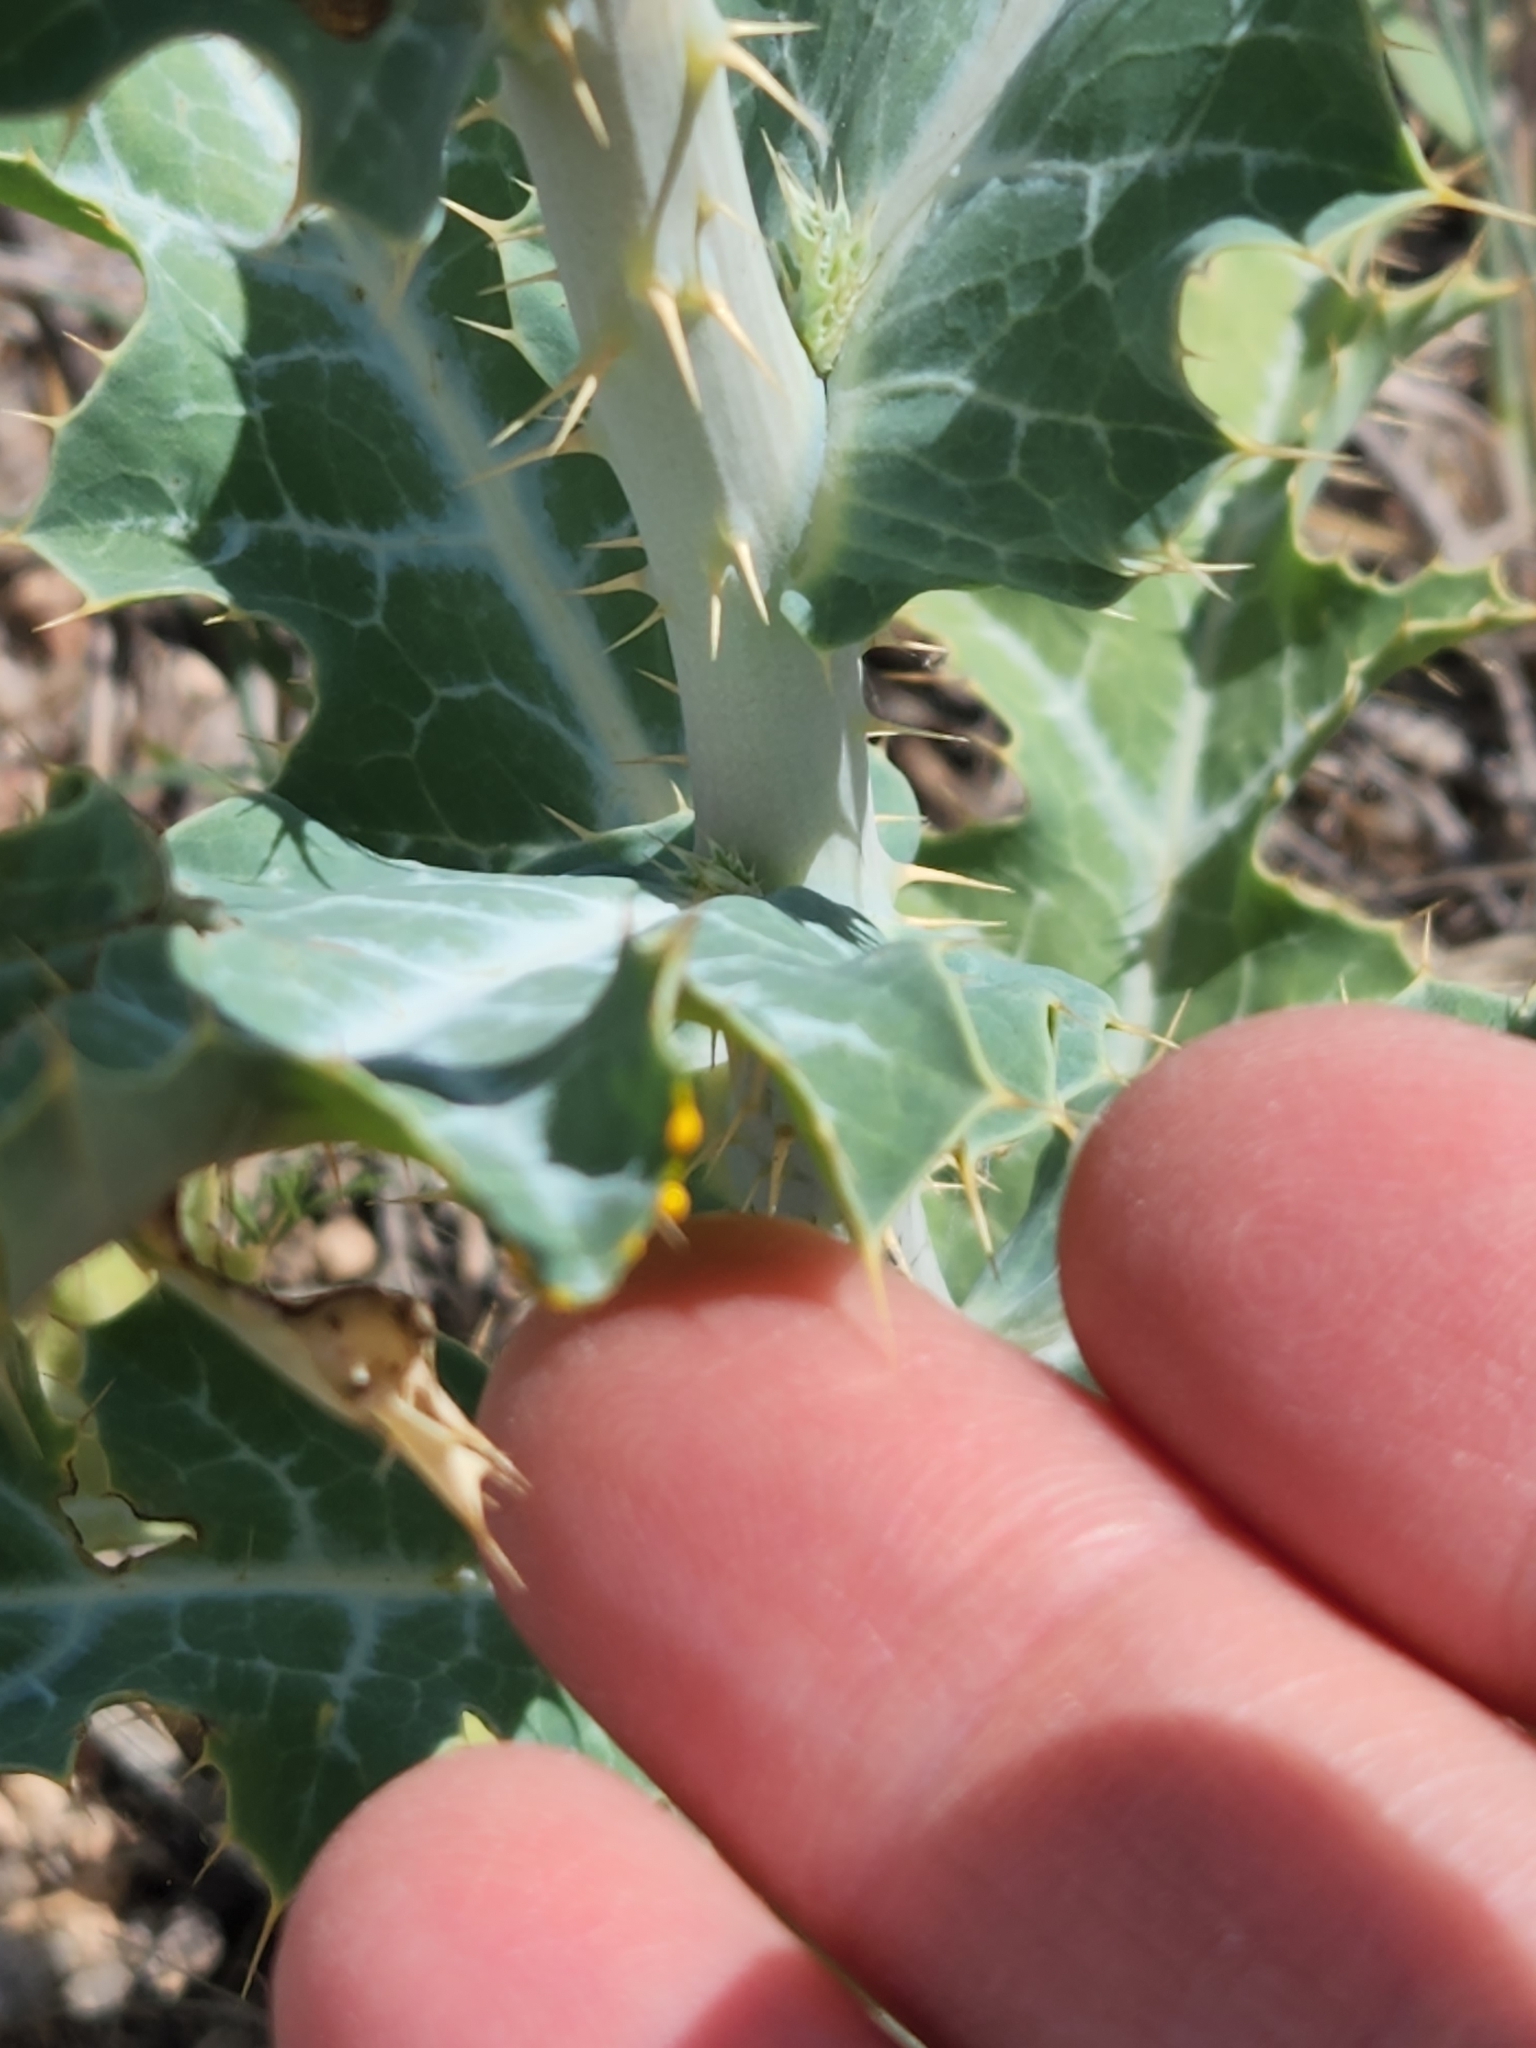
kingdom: Plantae
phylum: Tracheophyta
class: Magnoliopsida
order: Ranunculales
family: Papaveraceae
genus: Argemone
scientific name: Argemone polyanthemos
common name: Plains prickly-poppy
